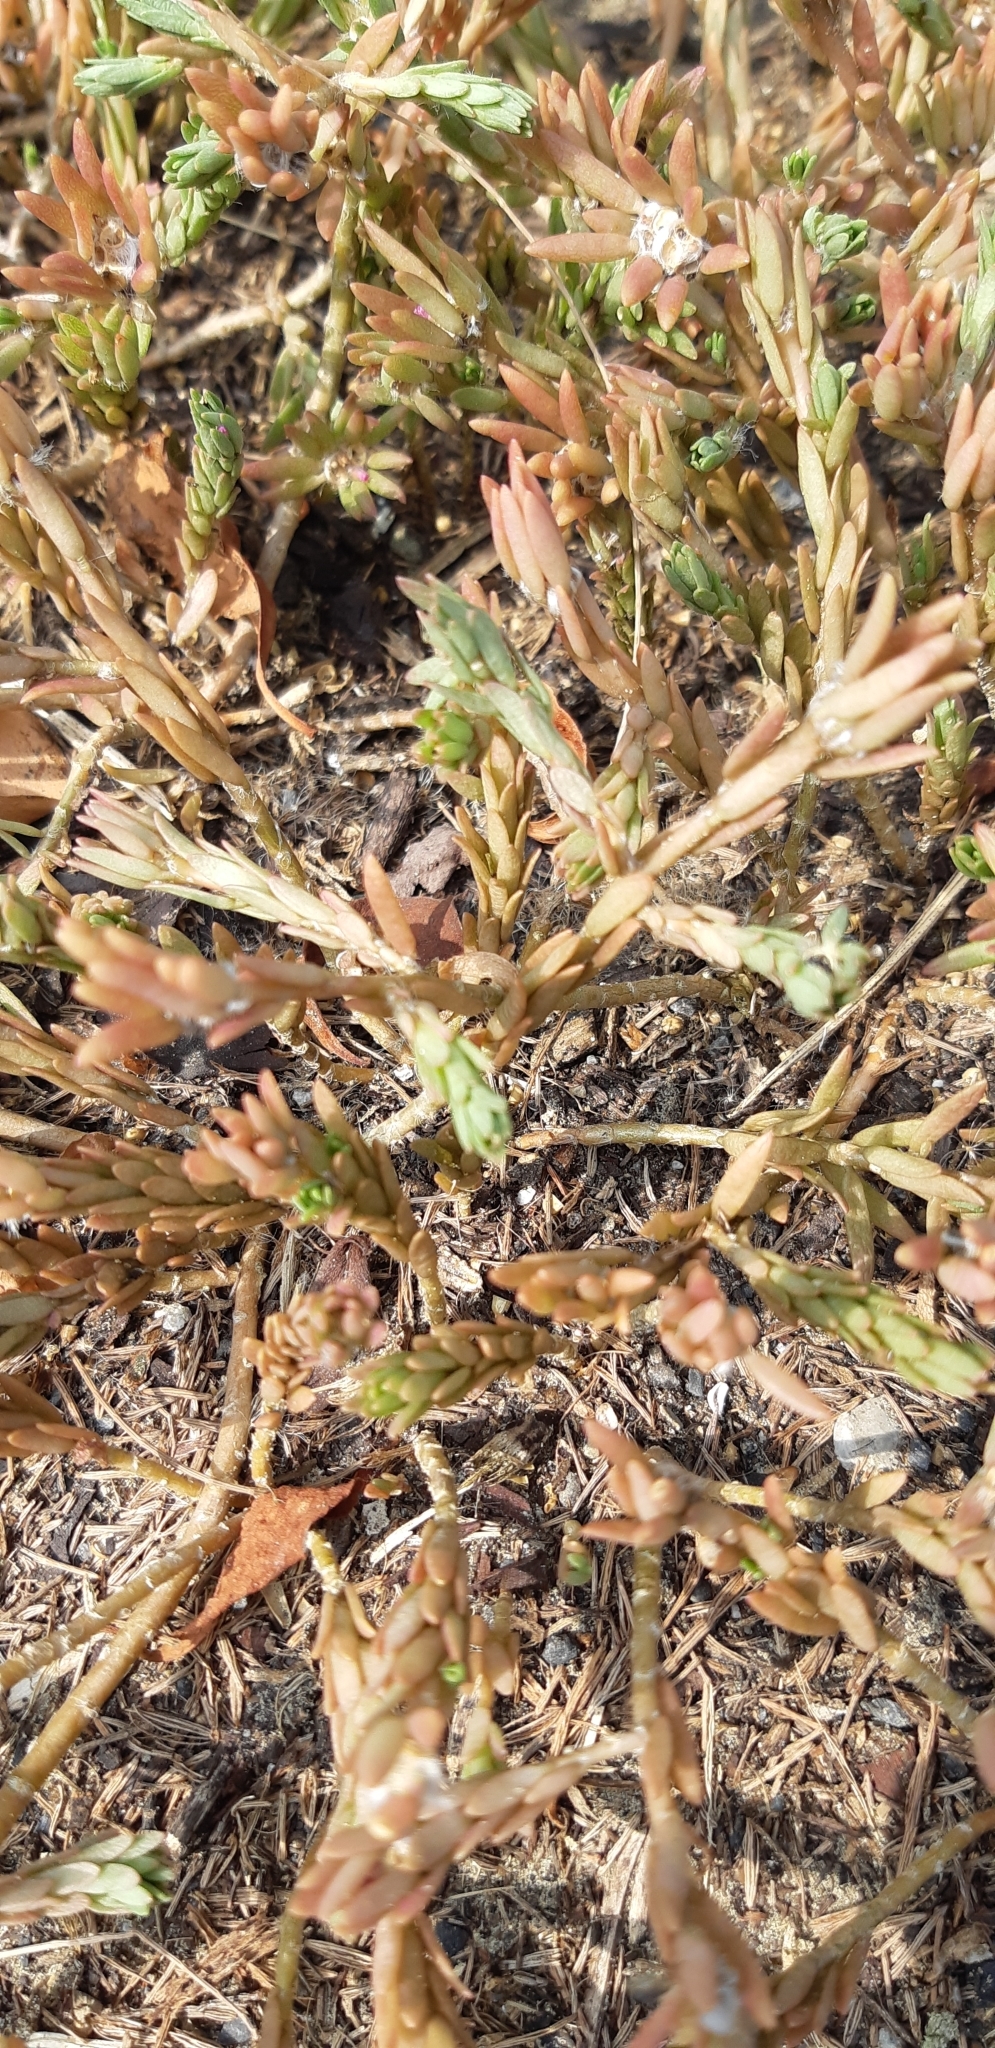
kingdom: Plantae
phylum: Tracheophyta
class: Magnoliopsida
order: Caryophyllales
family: Portulacaceae
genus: Portulaca
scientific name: Portulaca pilosa
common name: Kiss me quick
